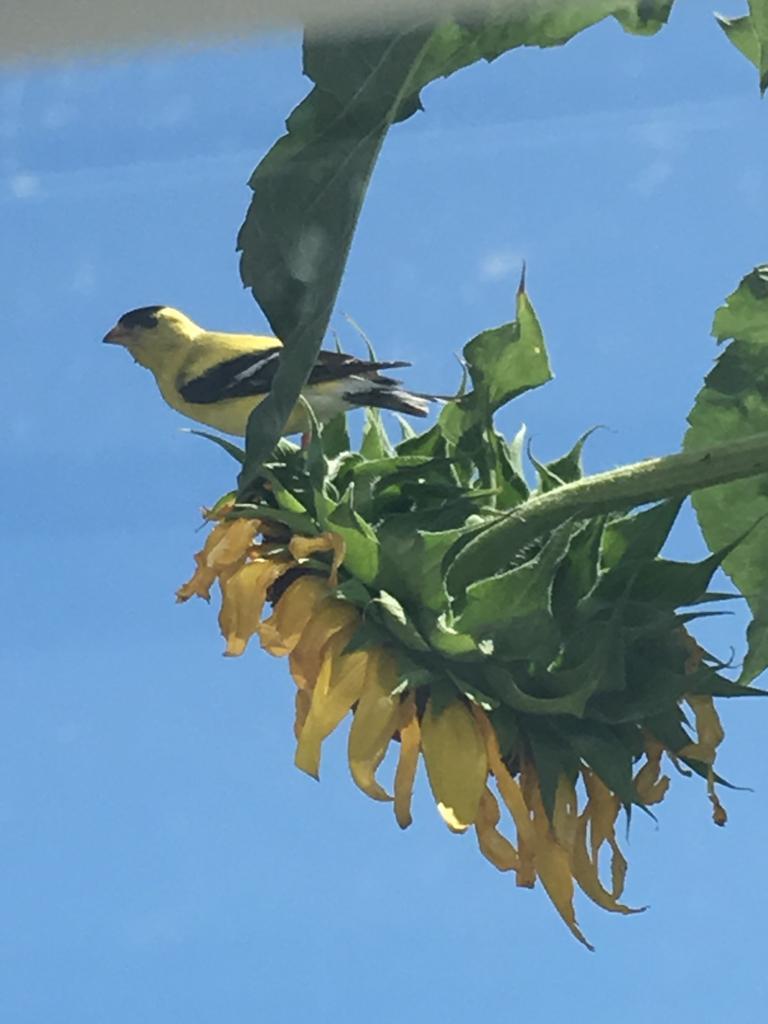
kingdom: Animalia
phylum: Chordata
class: Aves
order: Passeriformes
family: Fringillidae
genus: Spinus
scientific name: Spinus tristis
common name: American goldfinch
